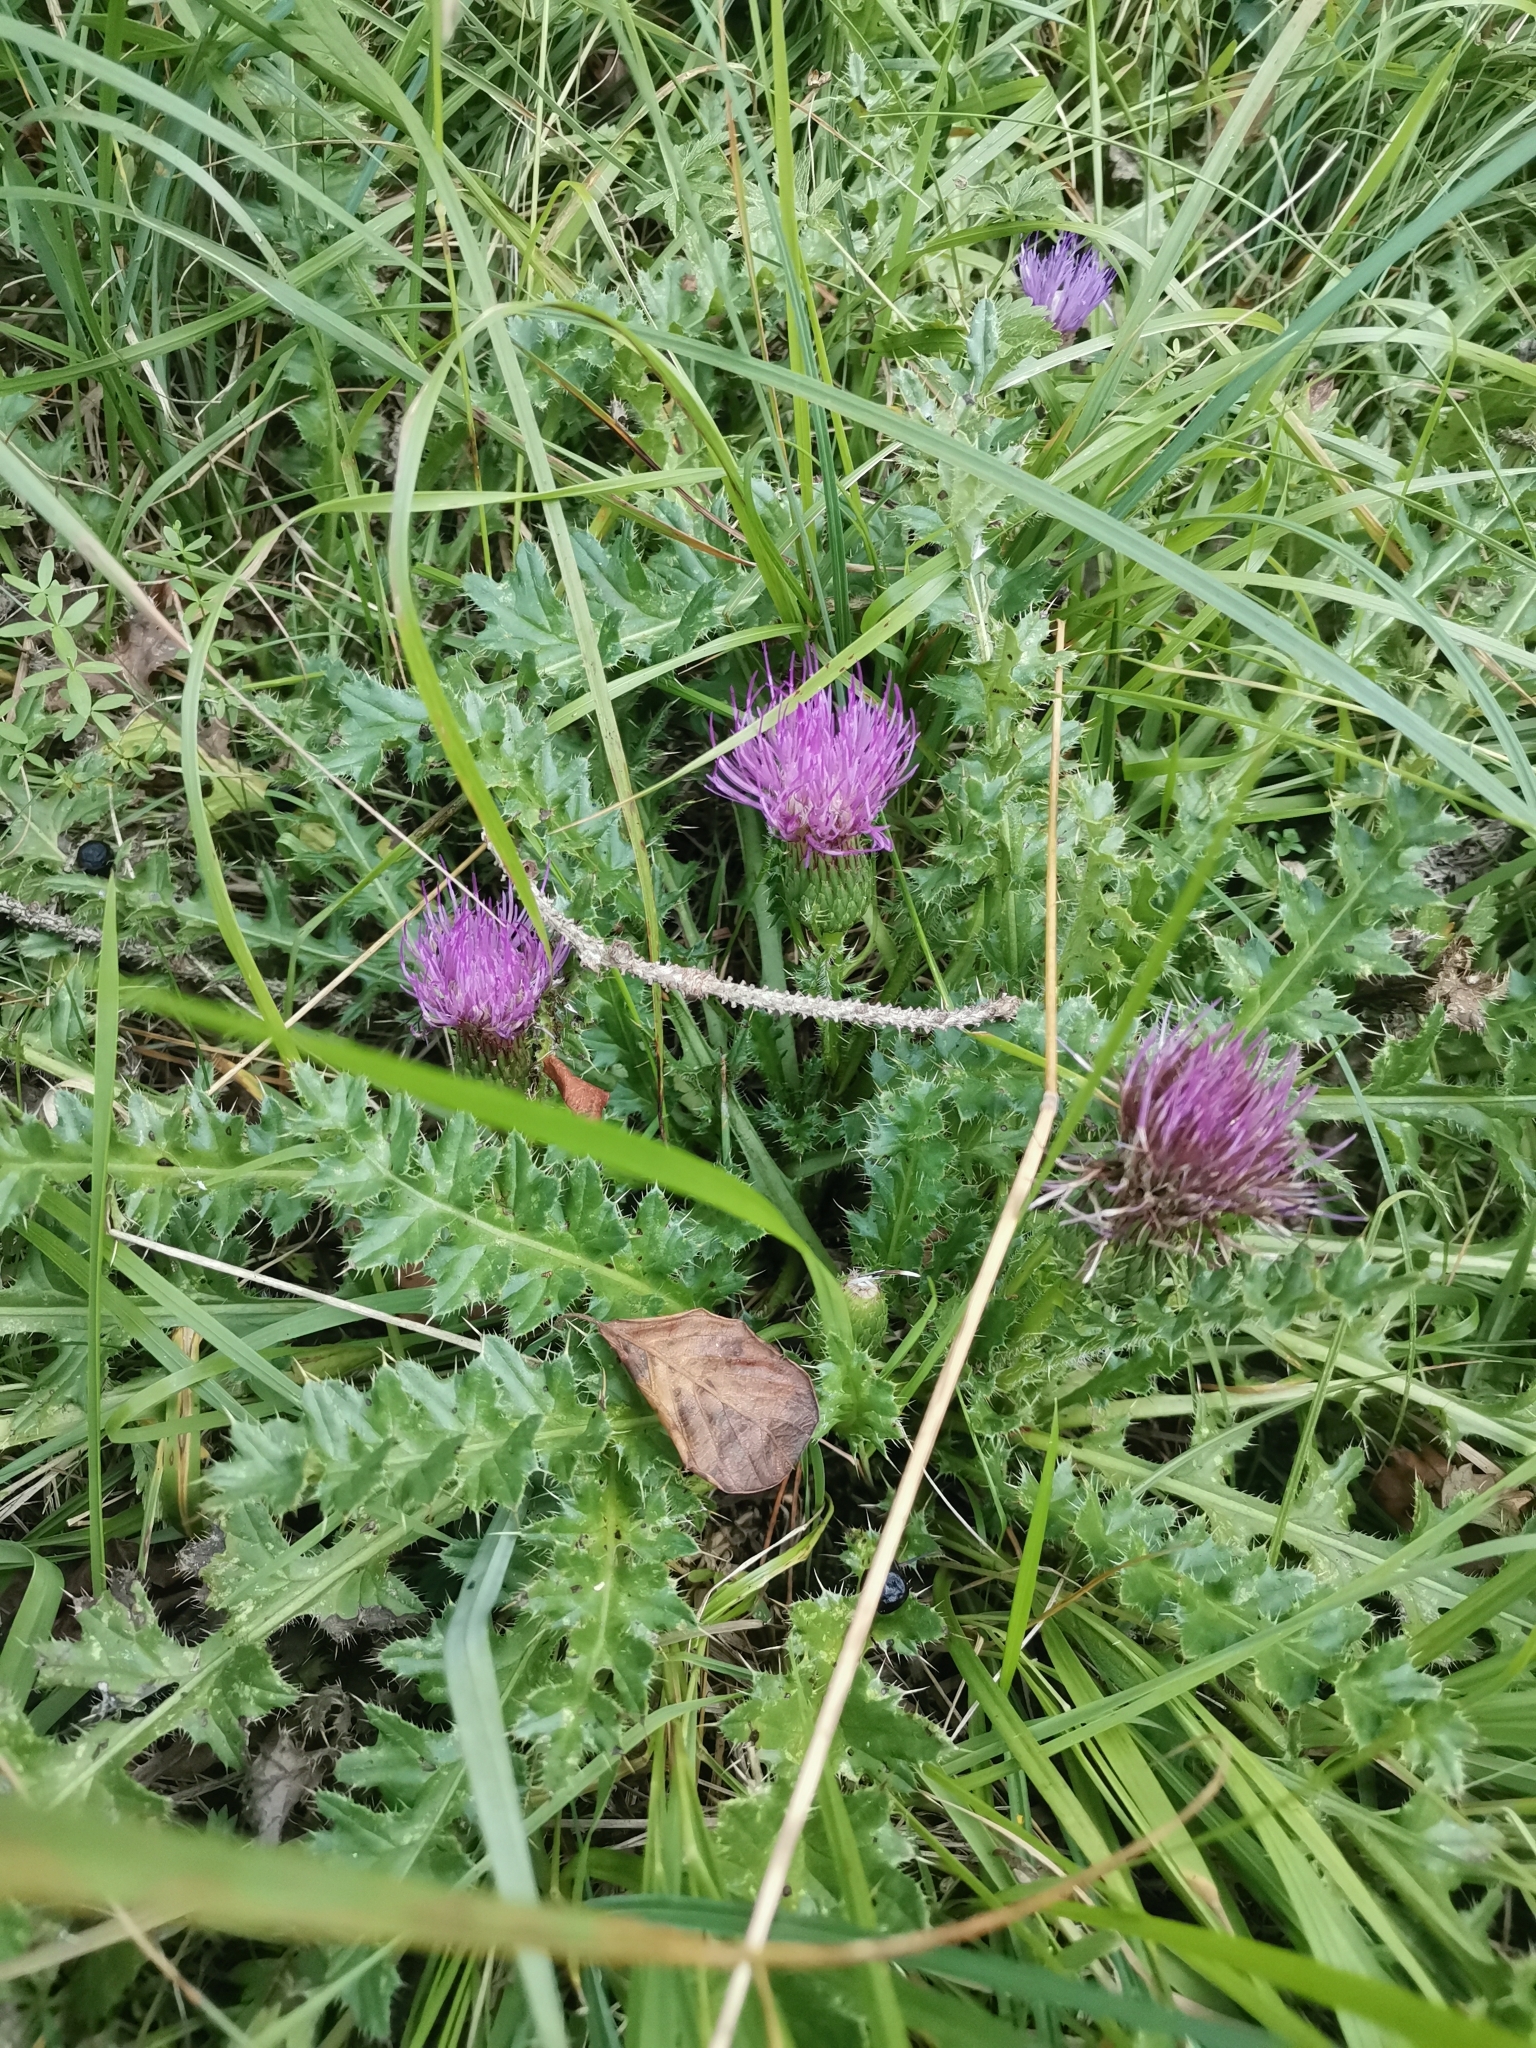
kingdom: Plantae
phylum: Tracheophyta
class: Magnoliopsida
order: Asterales
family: Asteraceae
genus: Cirsium
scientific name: Cirsium acaulon
